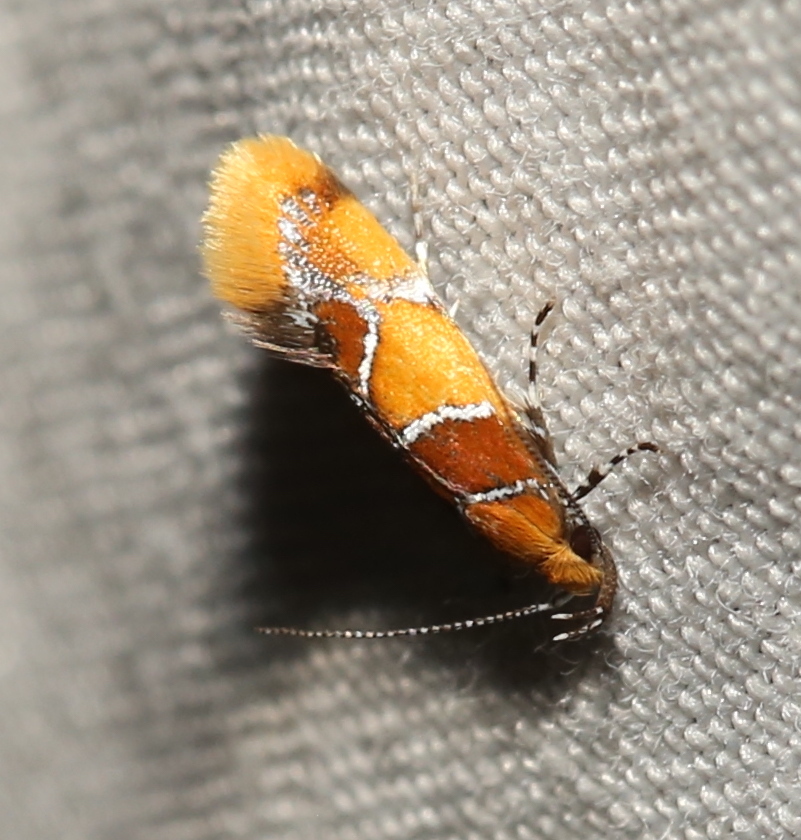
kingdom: Animalia
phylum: Arthropoda
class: Insecta
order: Lepidoptera
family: Oecophoridae
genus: Callima
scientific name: Callima argenticinctella
